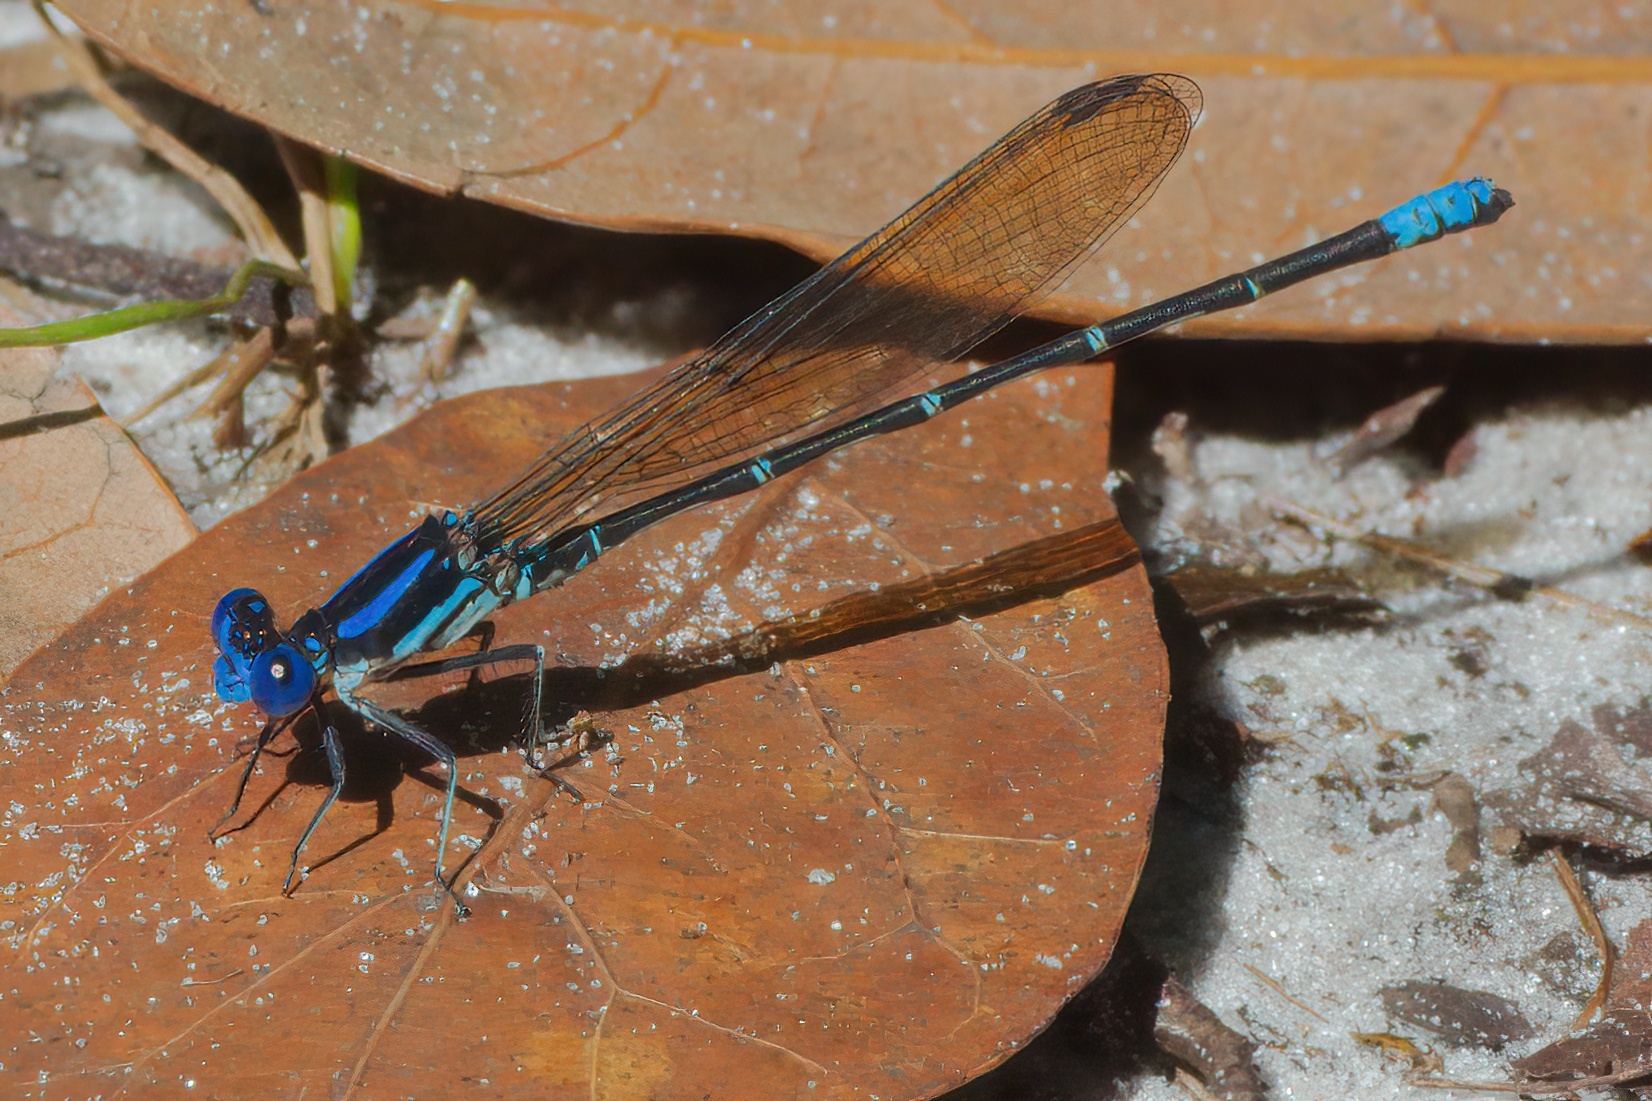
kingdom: Animalia
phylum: Arthropoda
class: Insecta
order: Odonata
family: Coenagrionidae
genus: Argia
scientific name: Argia sedula
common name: Blue-ringed dancer
